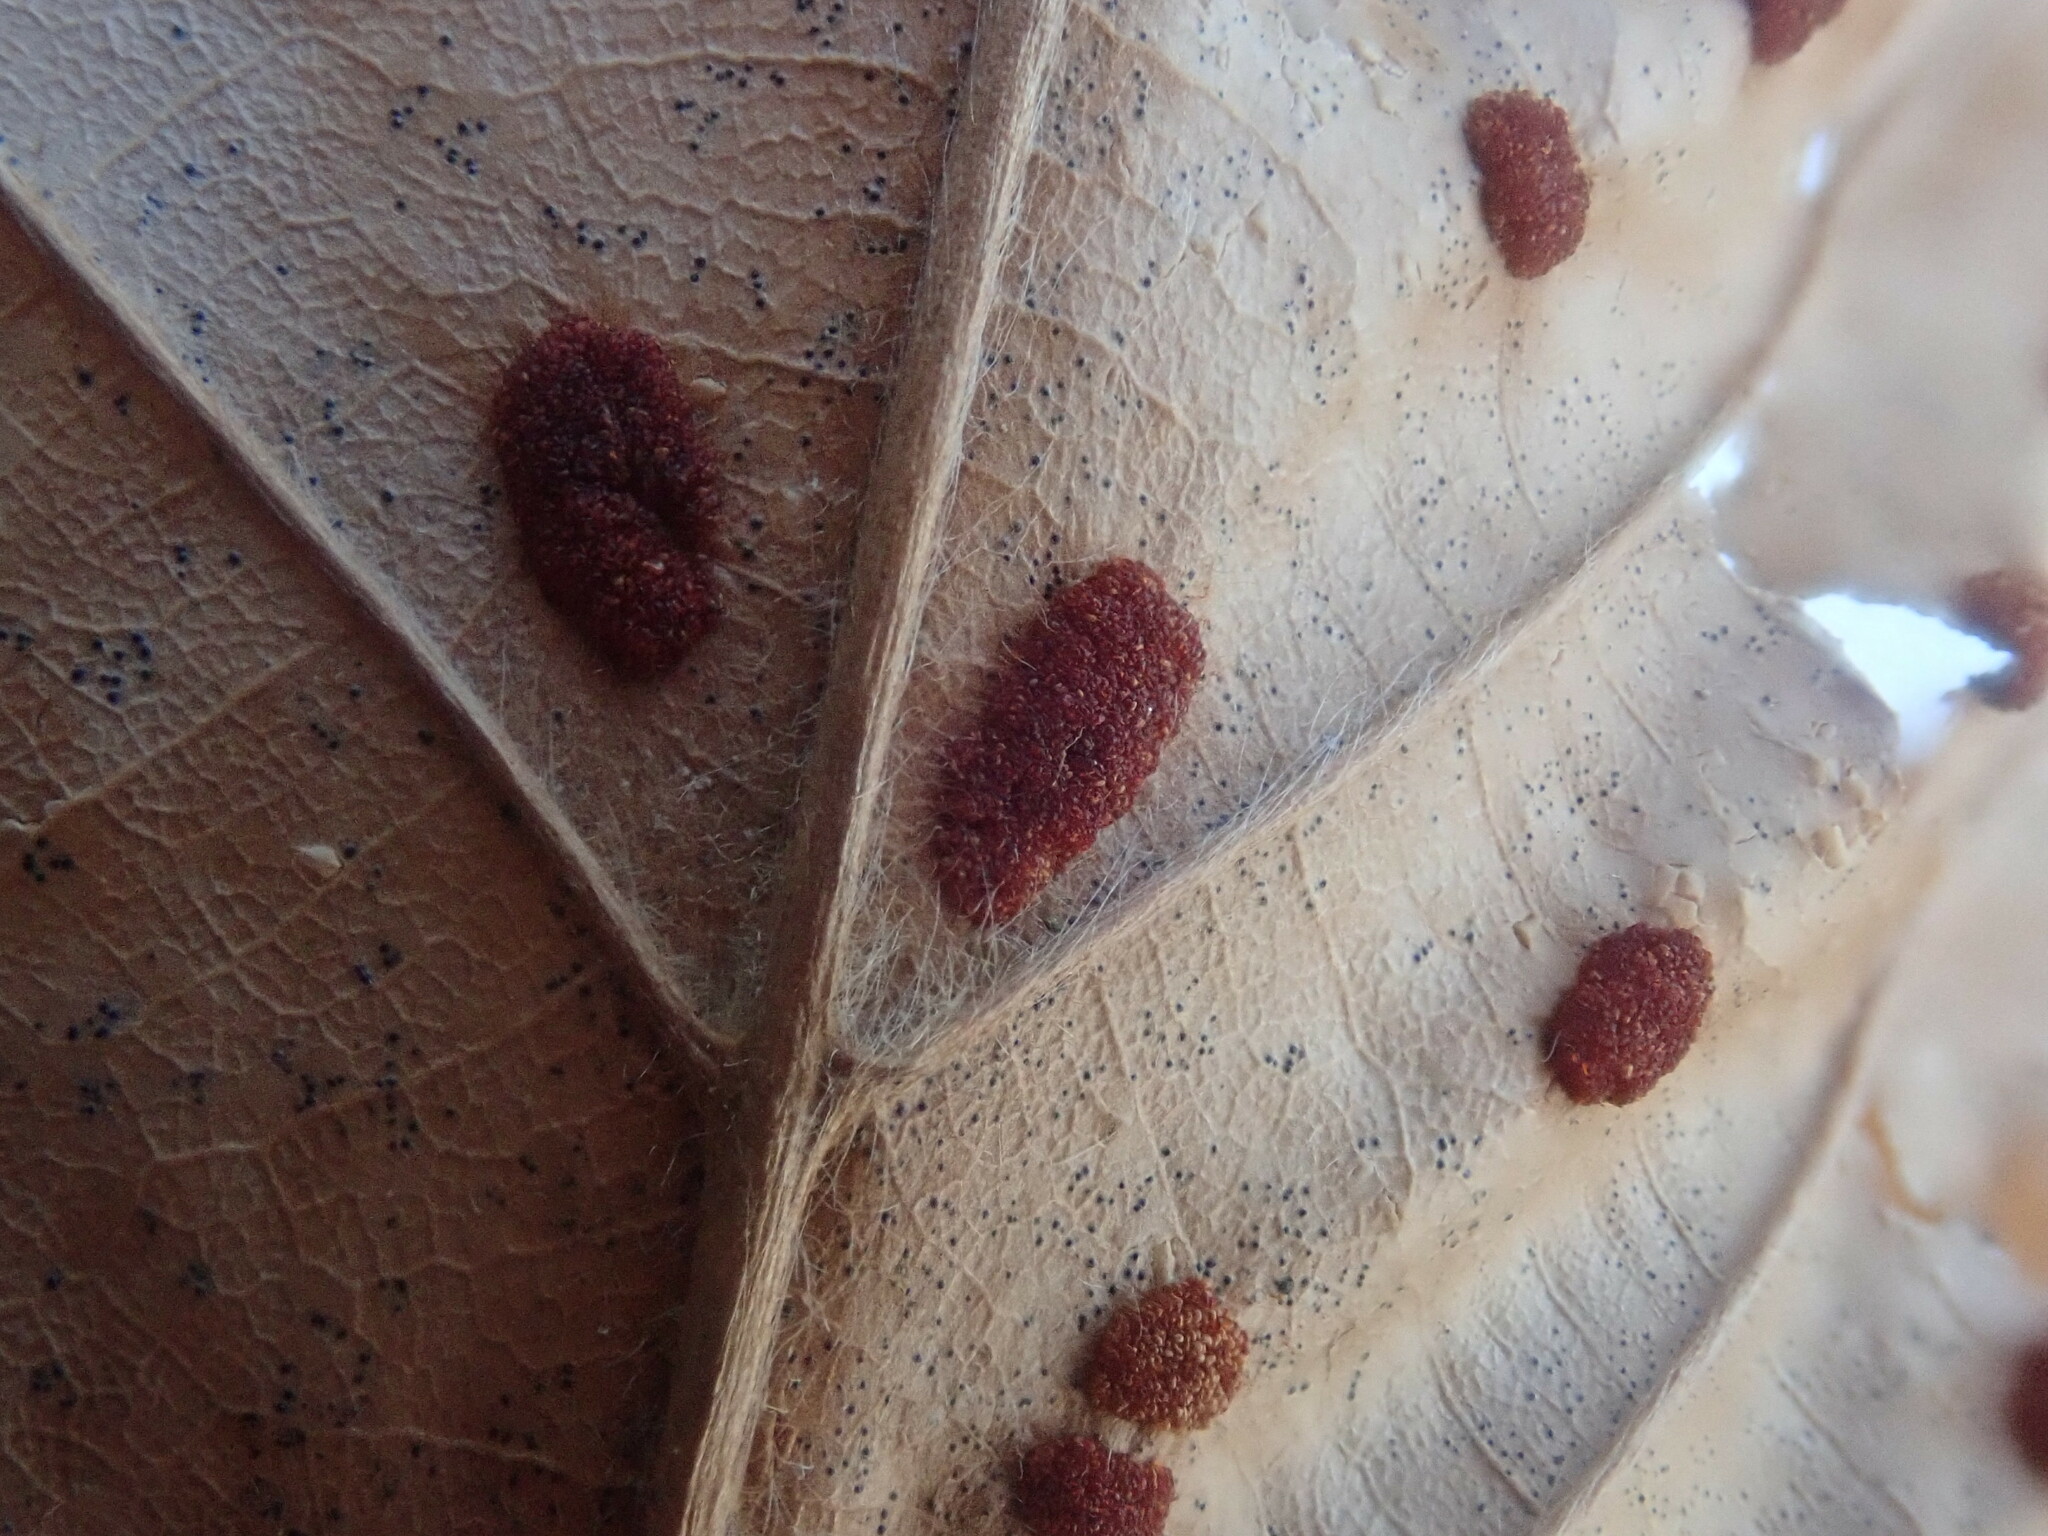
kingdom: Animalia
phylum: Arthropoda
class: Arachnida
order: Trombidiformes
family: Eriophyidae
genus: Acalitus
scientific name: Acalitus
